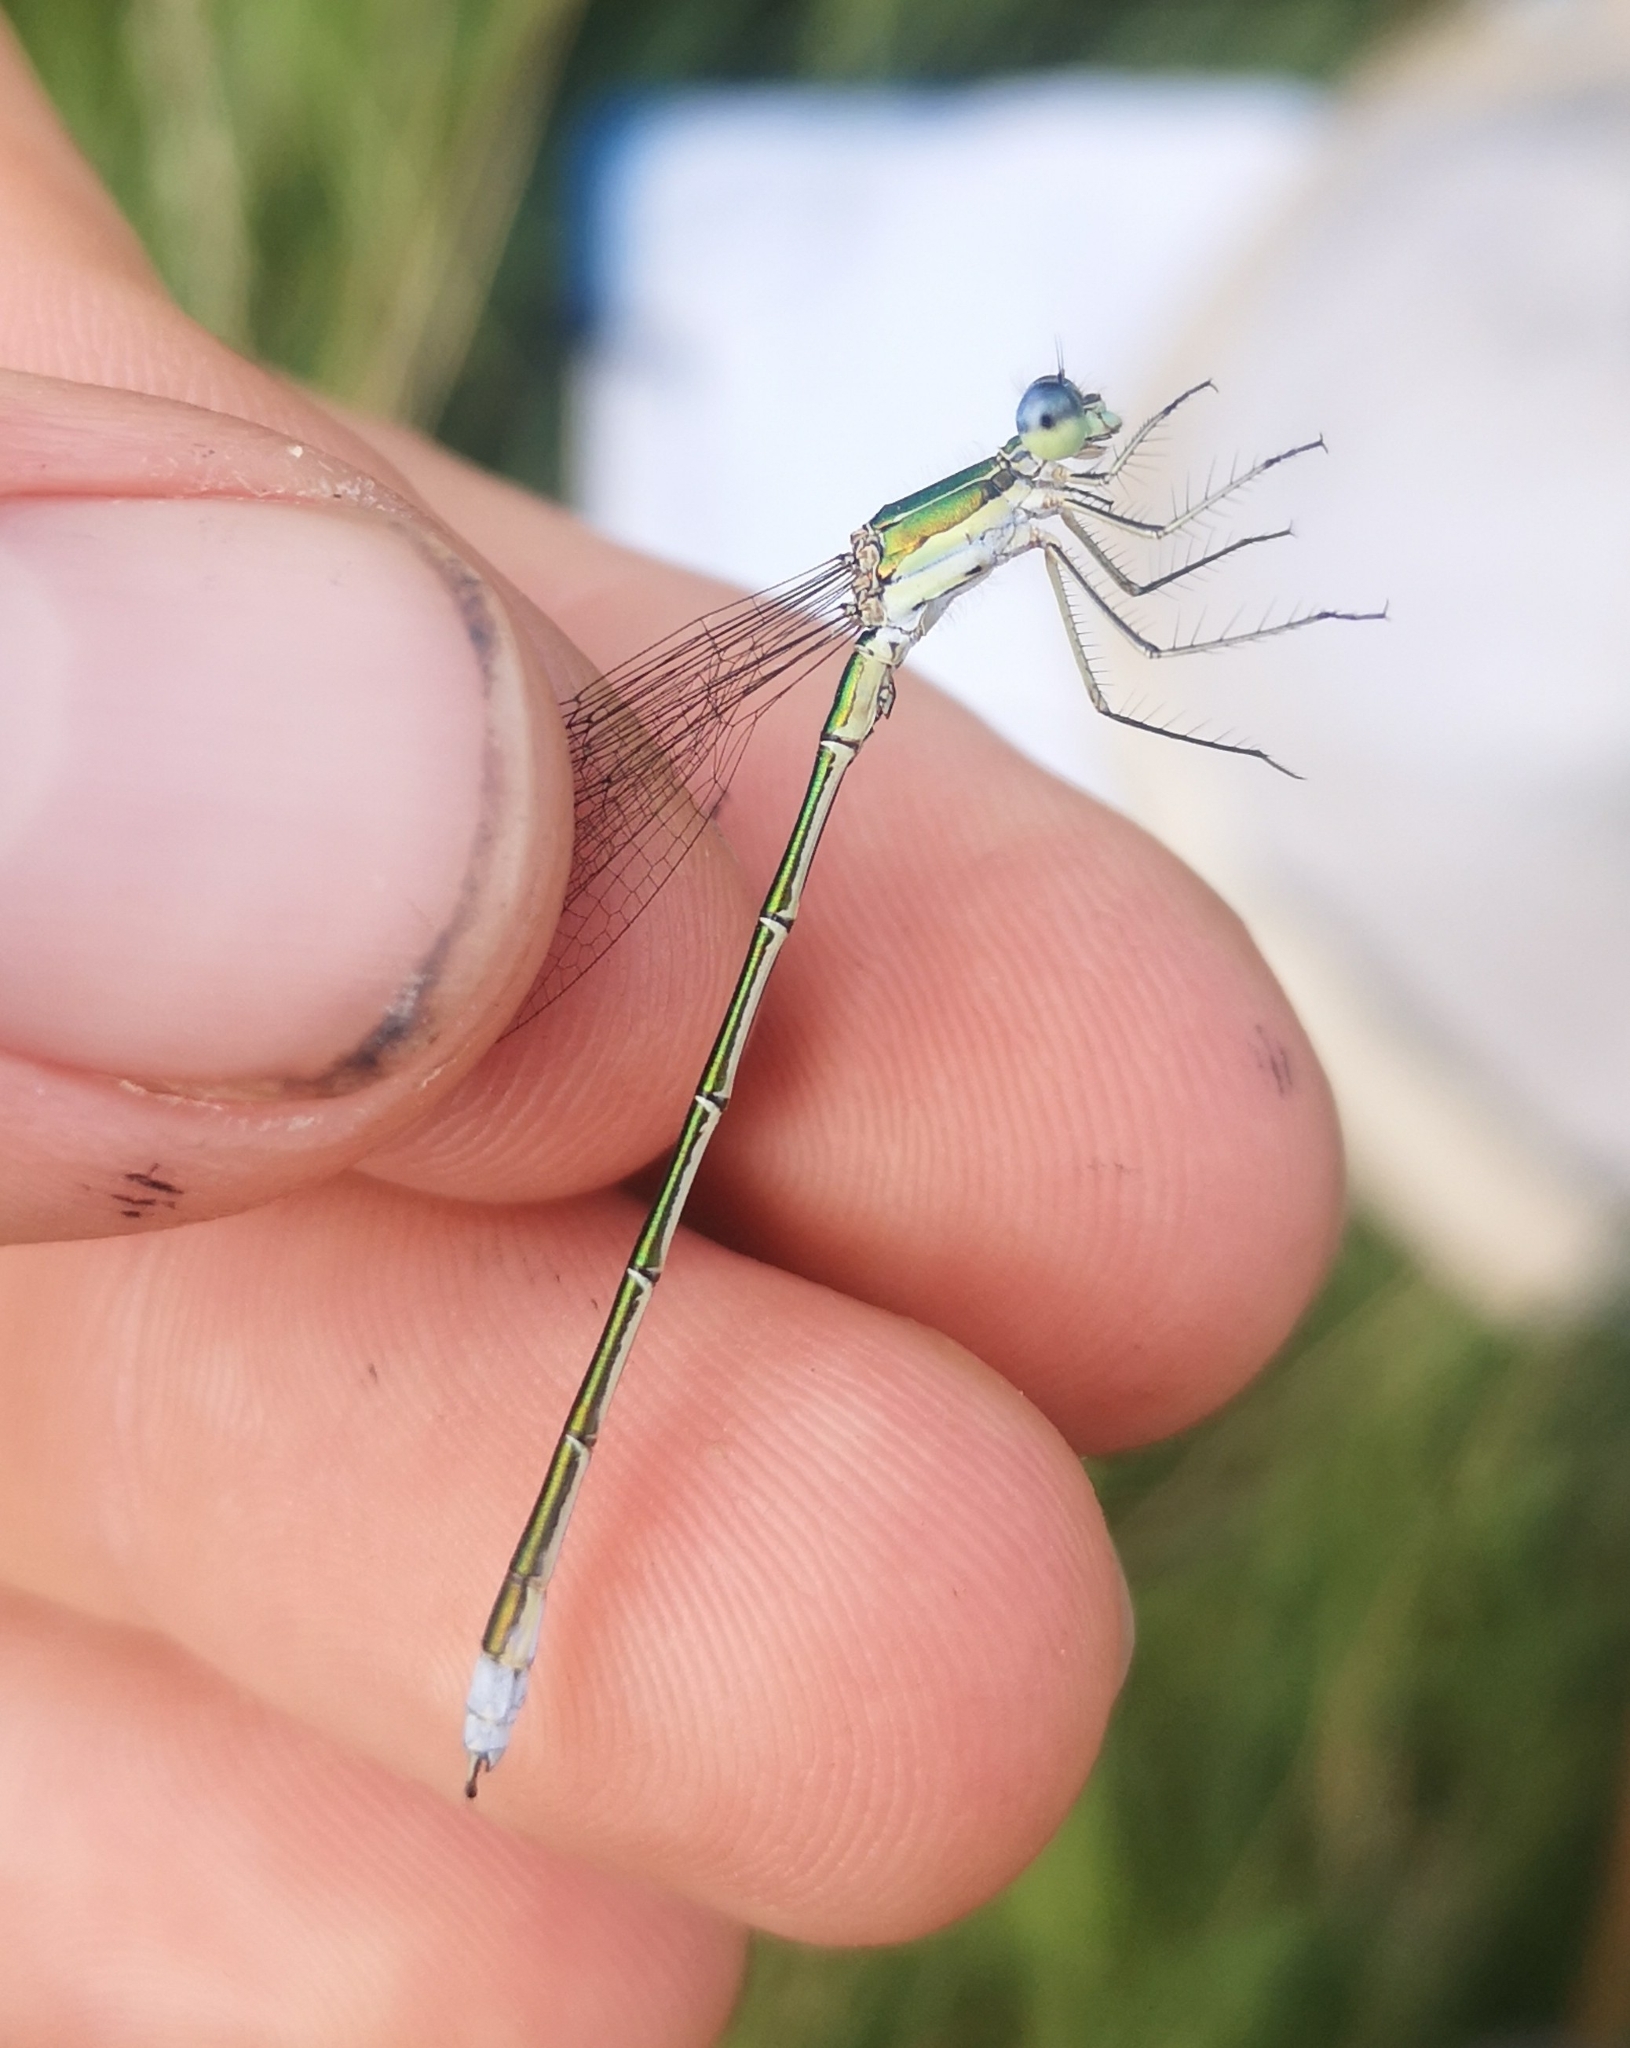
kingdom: Animalia
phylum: Arthropoda
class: Insecta
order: Odonata
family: Lestidae
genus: Lestes
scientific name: Lestes virens
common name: Small emerald spreadwing
